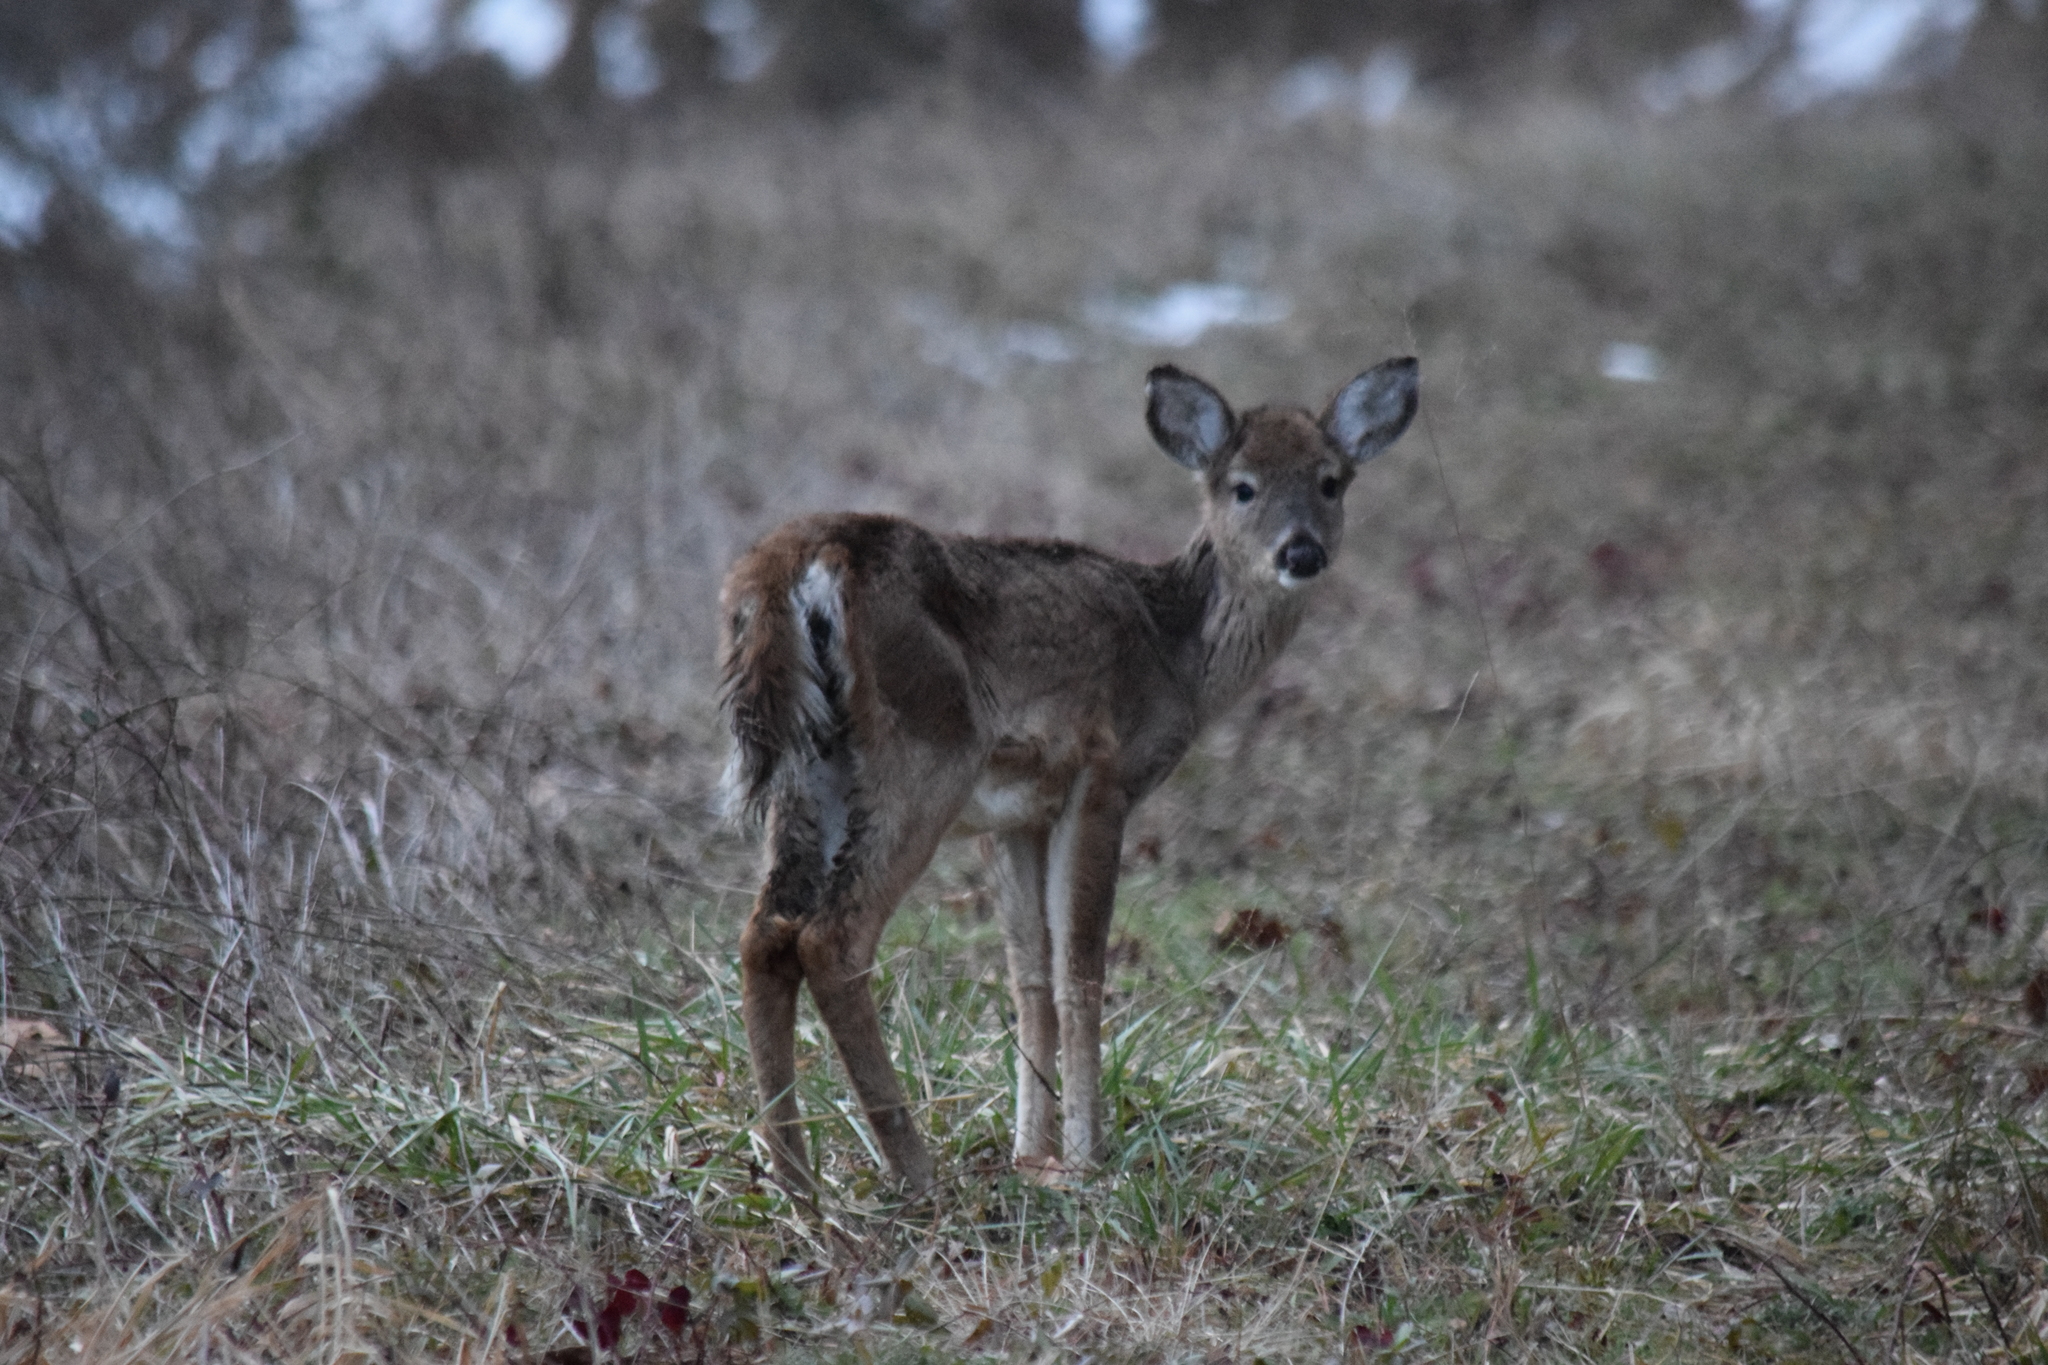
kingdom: Animalia
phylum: Chordata
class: Mammalia
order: Artiodactyla
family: Cervidae
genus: Odocoileus
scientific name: Odocoileus virginianus
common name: White-tailed deer
